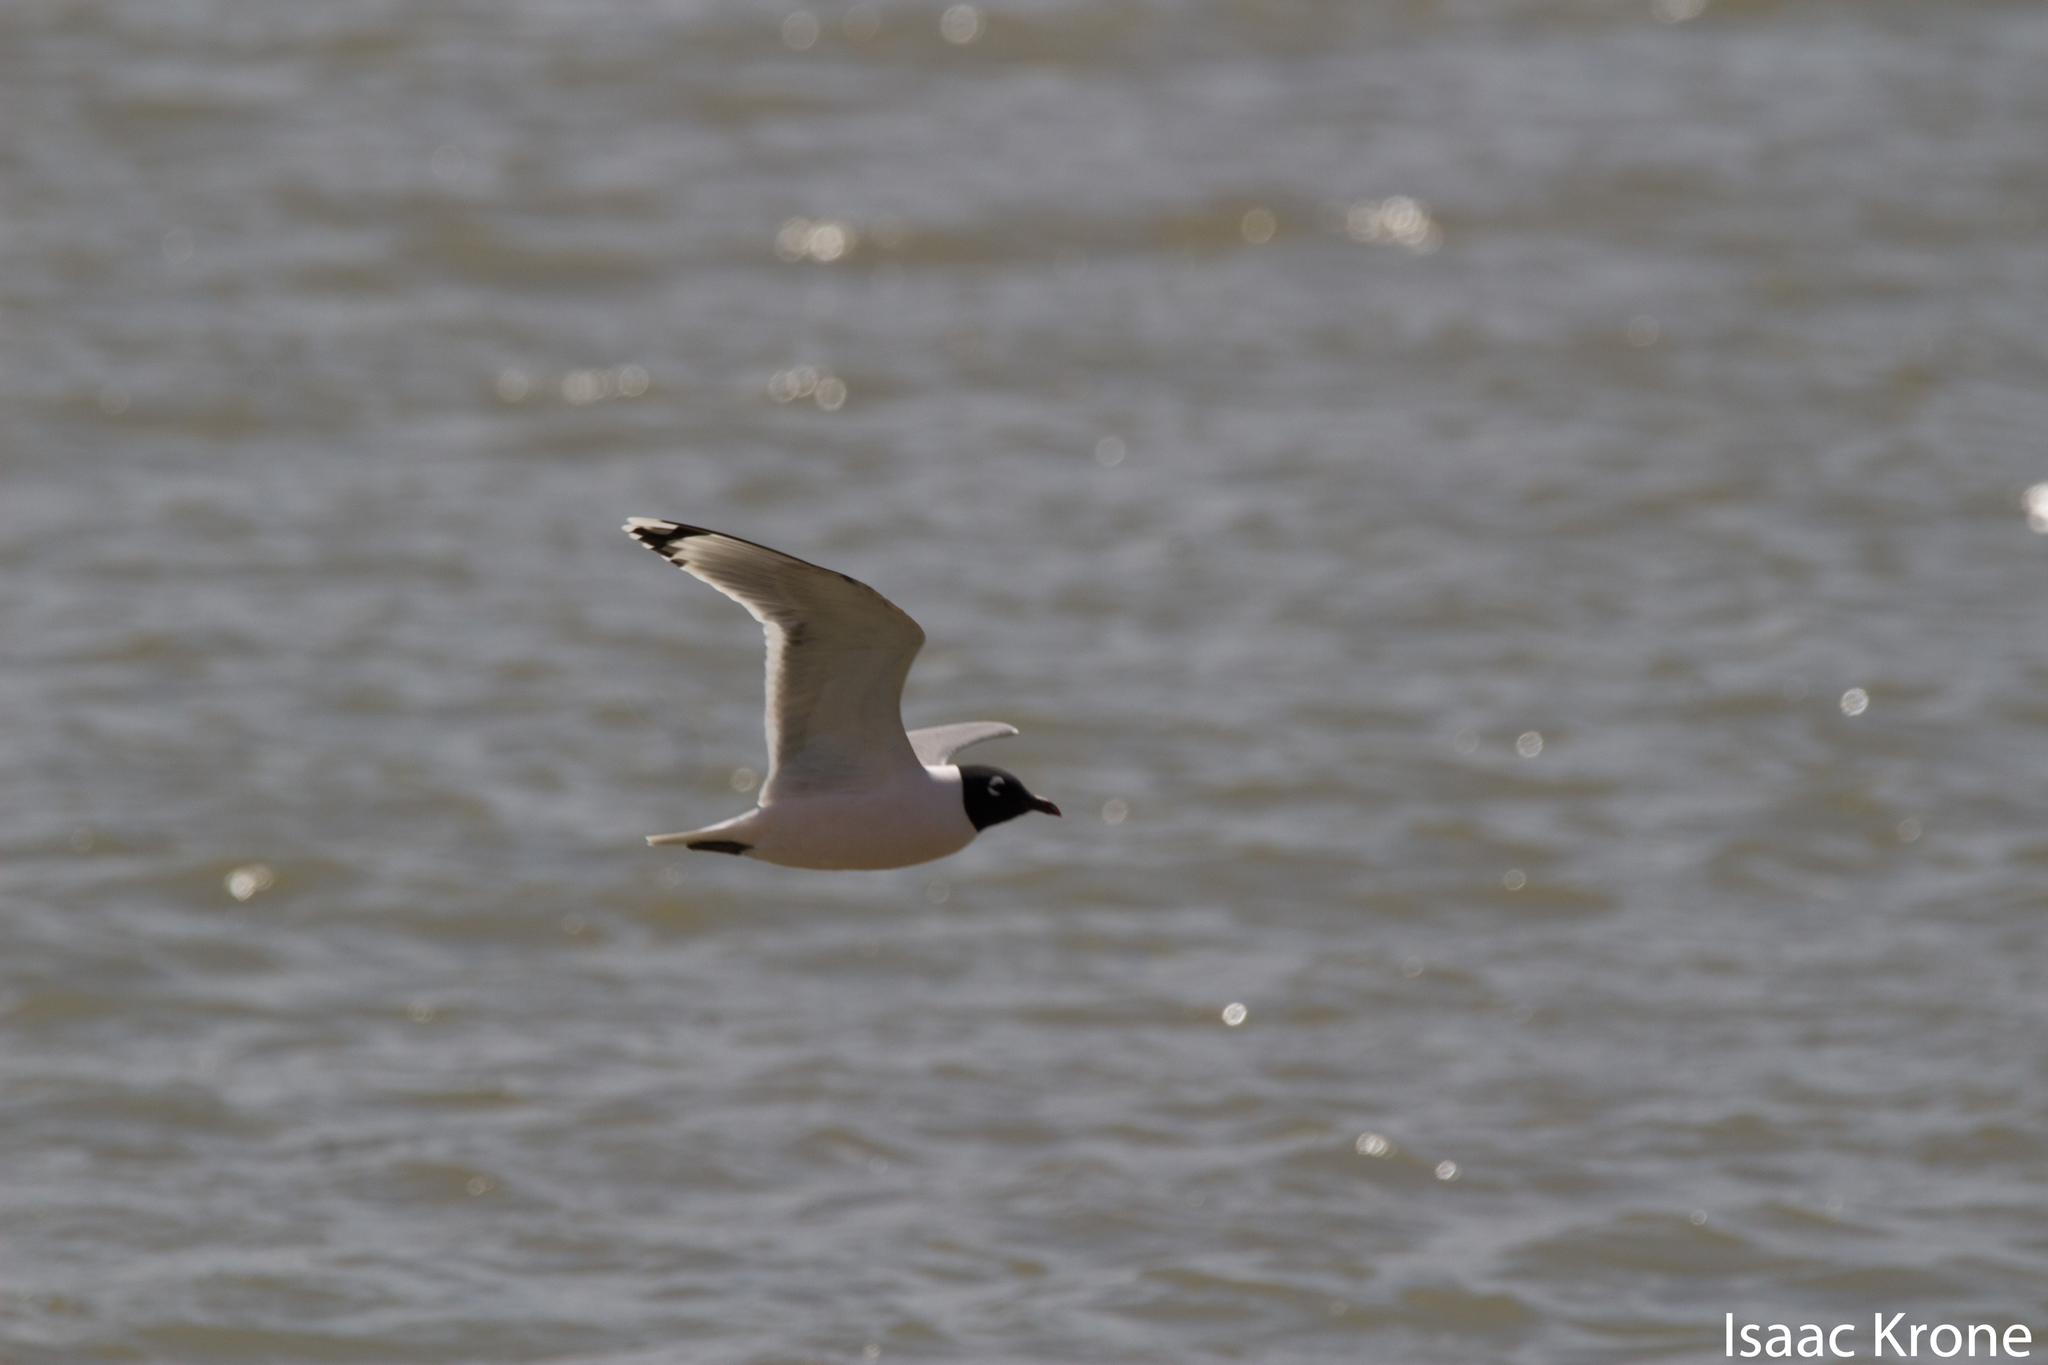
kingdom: Animalia
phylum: Chordata
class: Aves
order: Charadriiformes
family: Laridae
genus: Leucophaeus
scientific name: Leucophaeus pipixcan
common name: Franklin's gull
